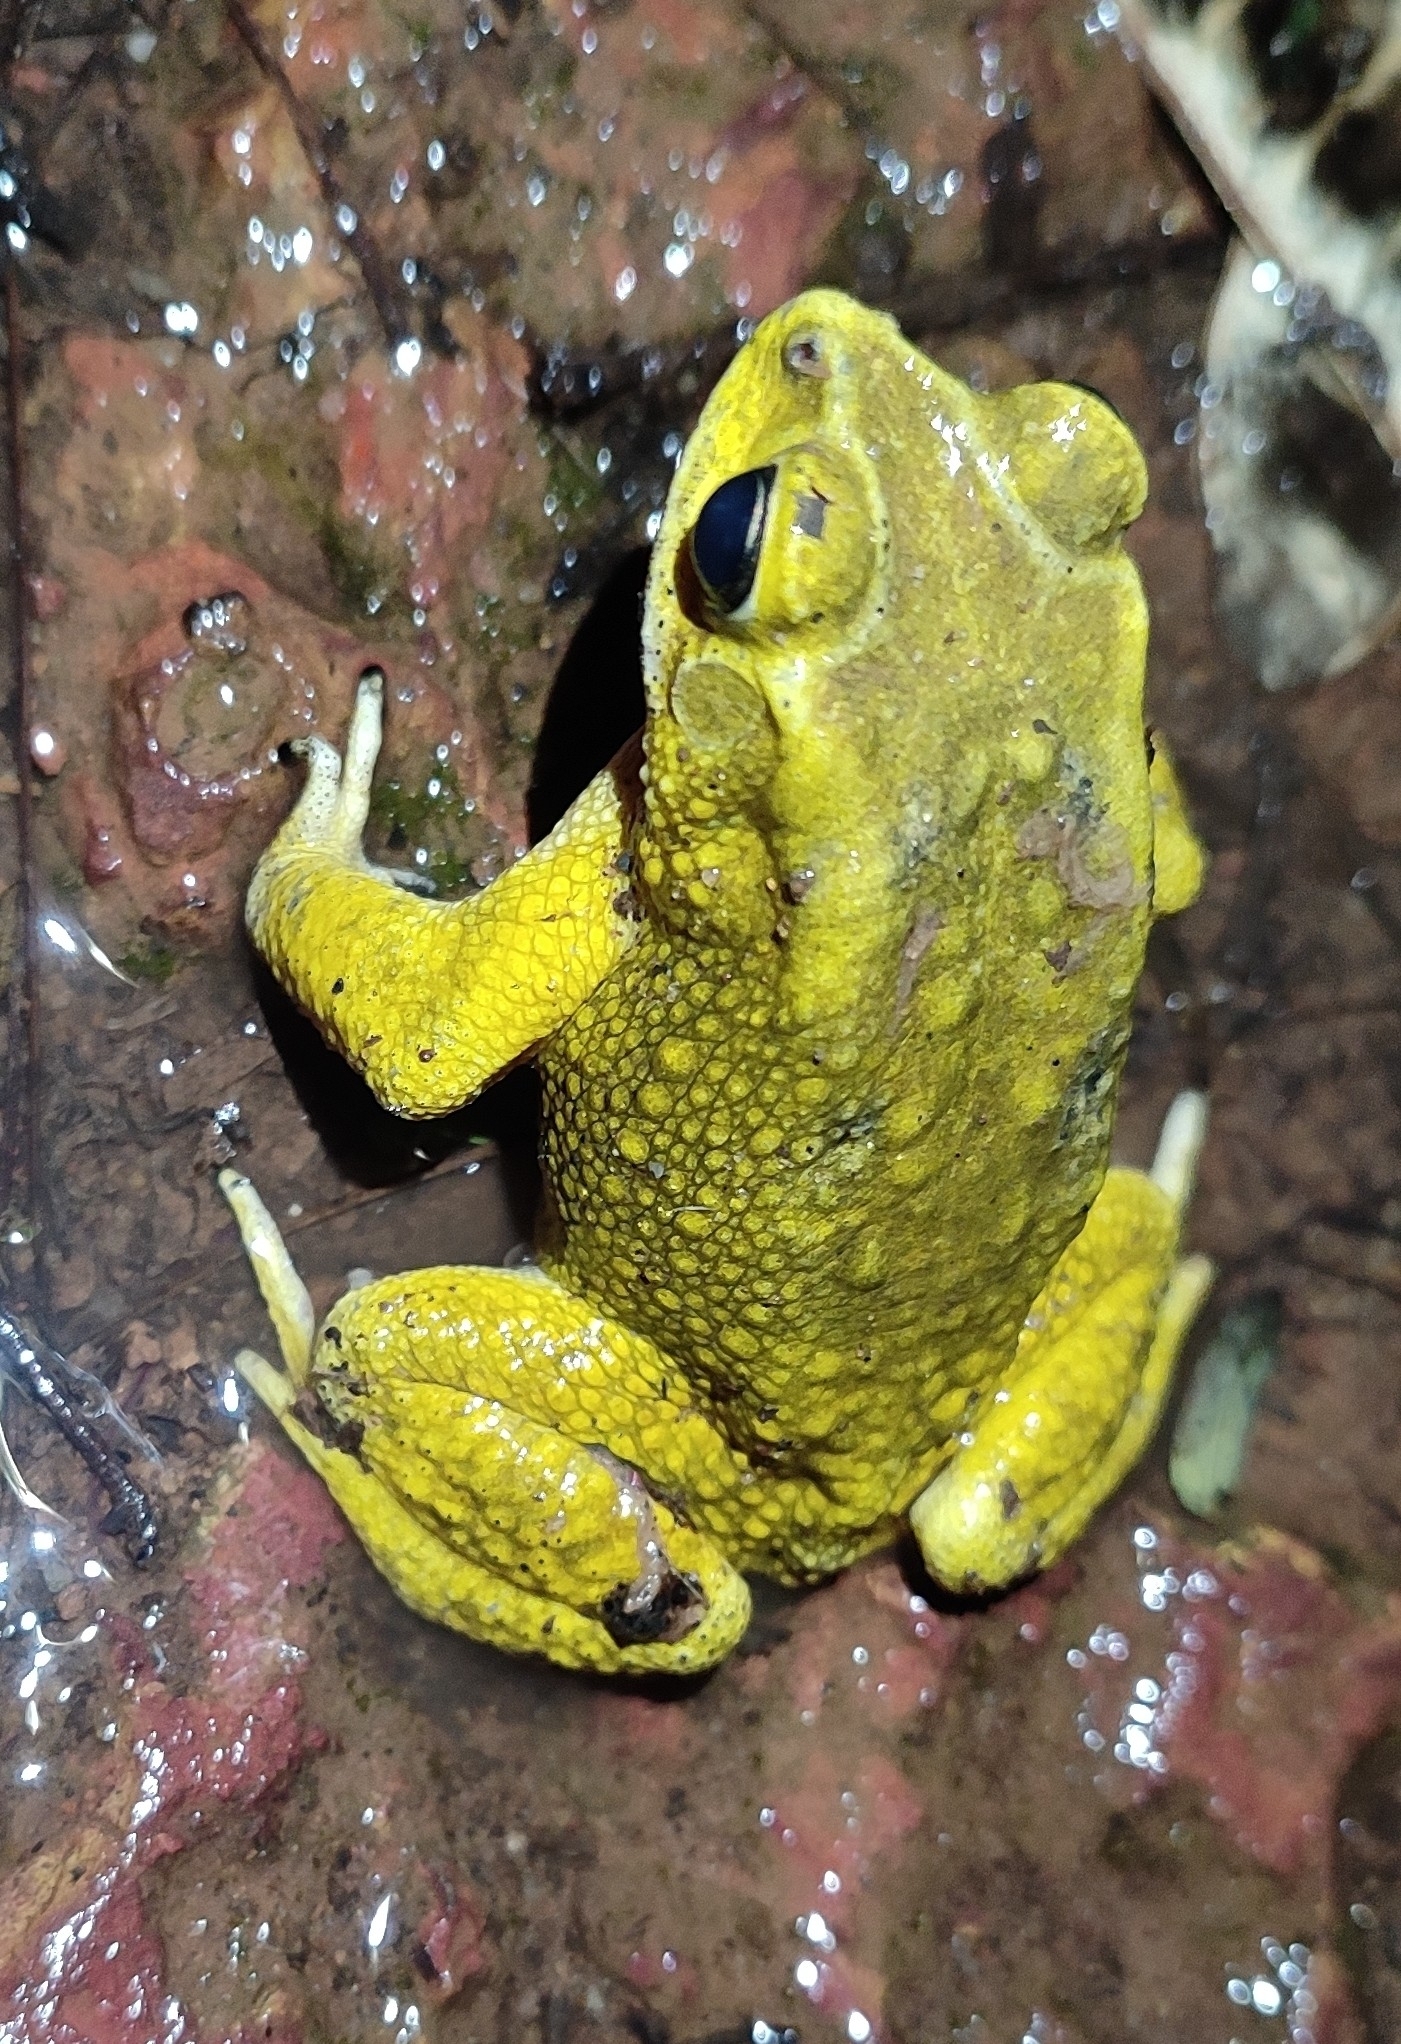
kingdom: Animalia
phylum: Chordata
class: Amphibia
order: Anura
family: Bufonidae
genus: Duttaphrynus
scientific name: Duttaphrynus melanostictus
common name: Common sunda toad
